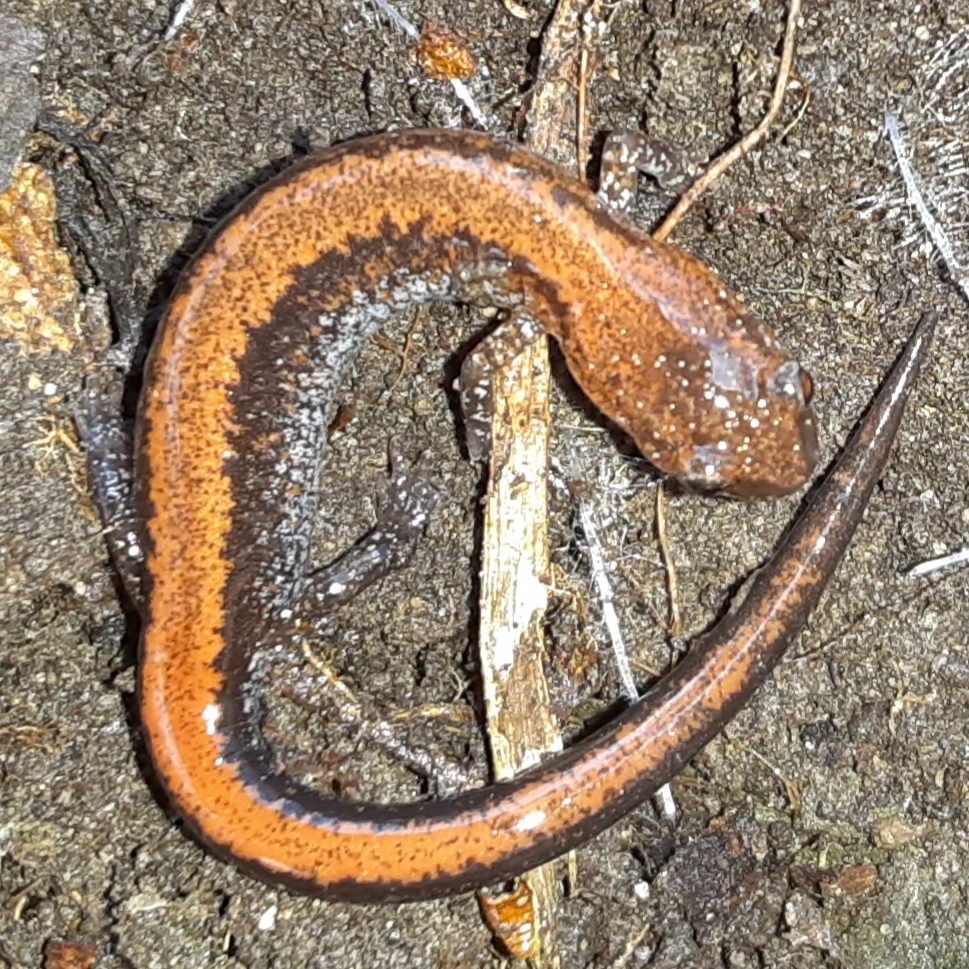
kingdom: Animalia
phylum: Chordata
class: Amphibia
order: Caudata
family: Plethodontidae
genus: Plethodon
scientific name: Plethodon cinereus
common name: Redback salamander
